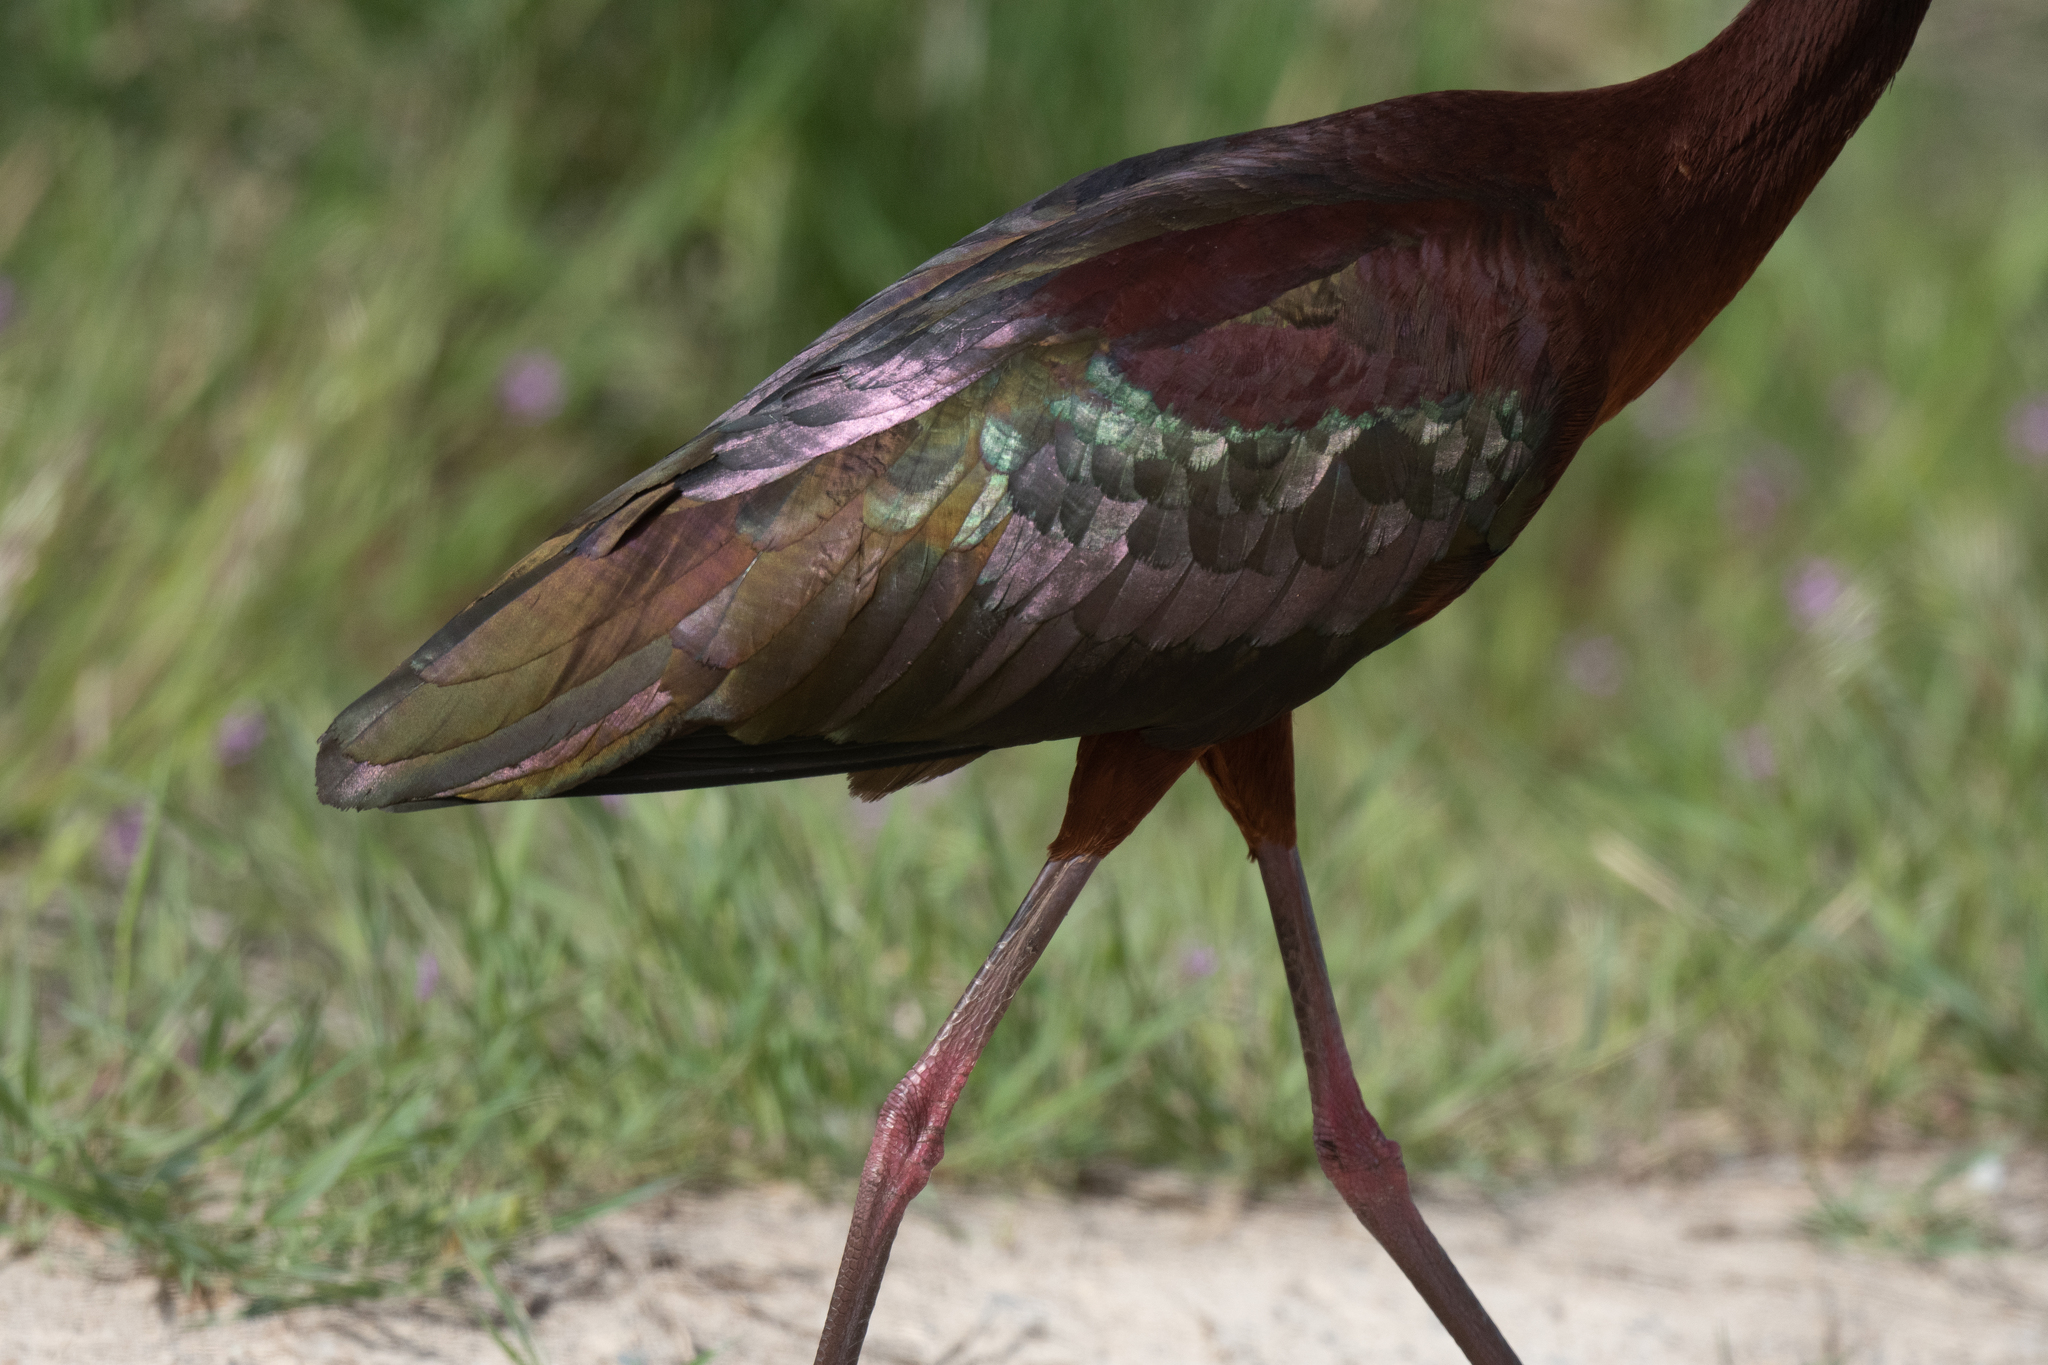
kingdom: Animalia
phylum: Chordata
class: Aves
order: Pelecaniformes
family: Threskiornithidae
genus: Plegadis
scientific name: Plegadis chihi
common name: White-faced ibis
